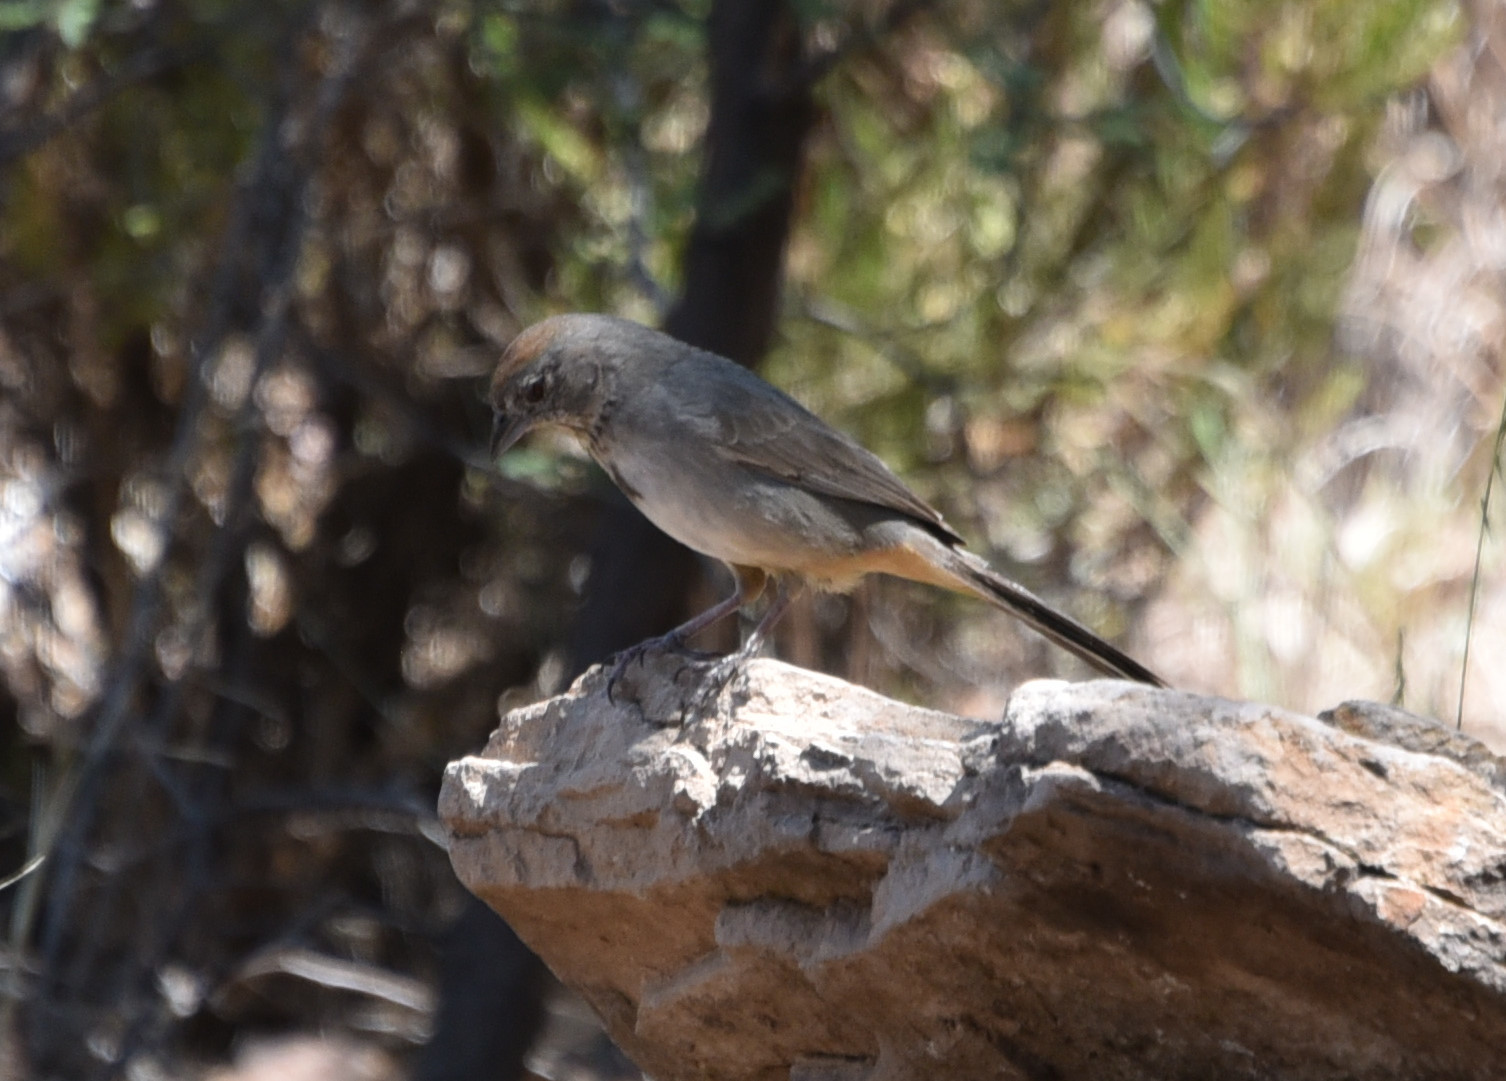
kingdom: Animalia
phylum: Chordata
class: Aves
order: Passeriformes
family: Passerellidae
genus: Melozone
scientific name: Melozone fusca
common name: Canyon towhee
